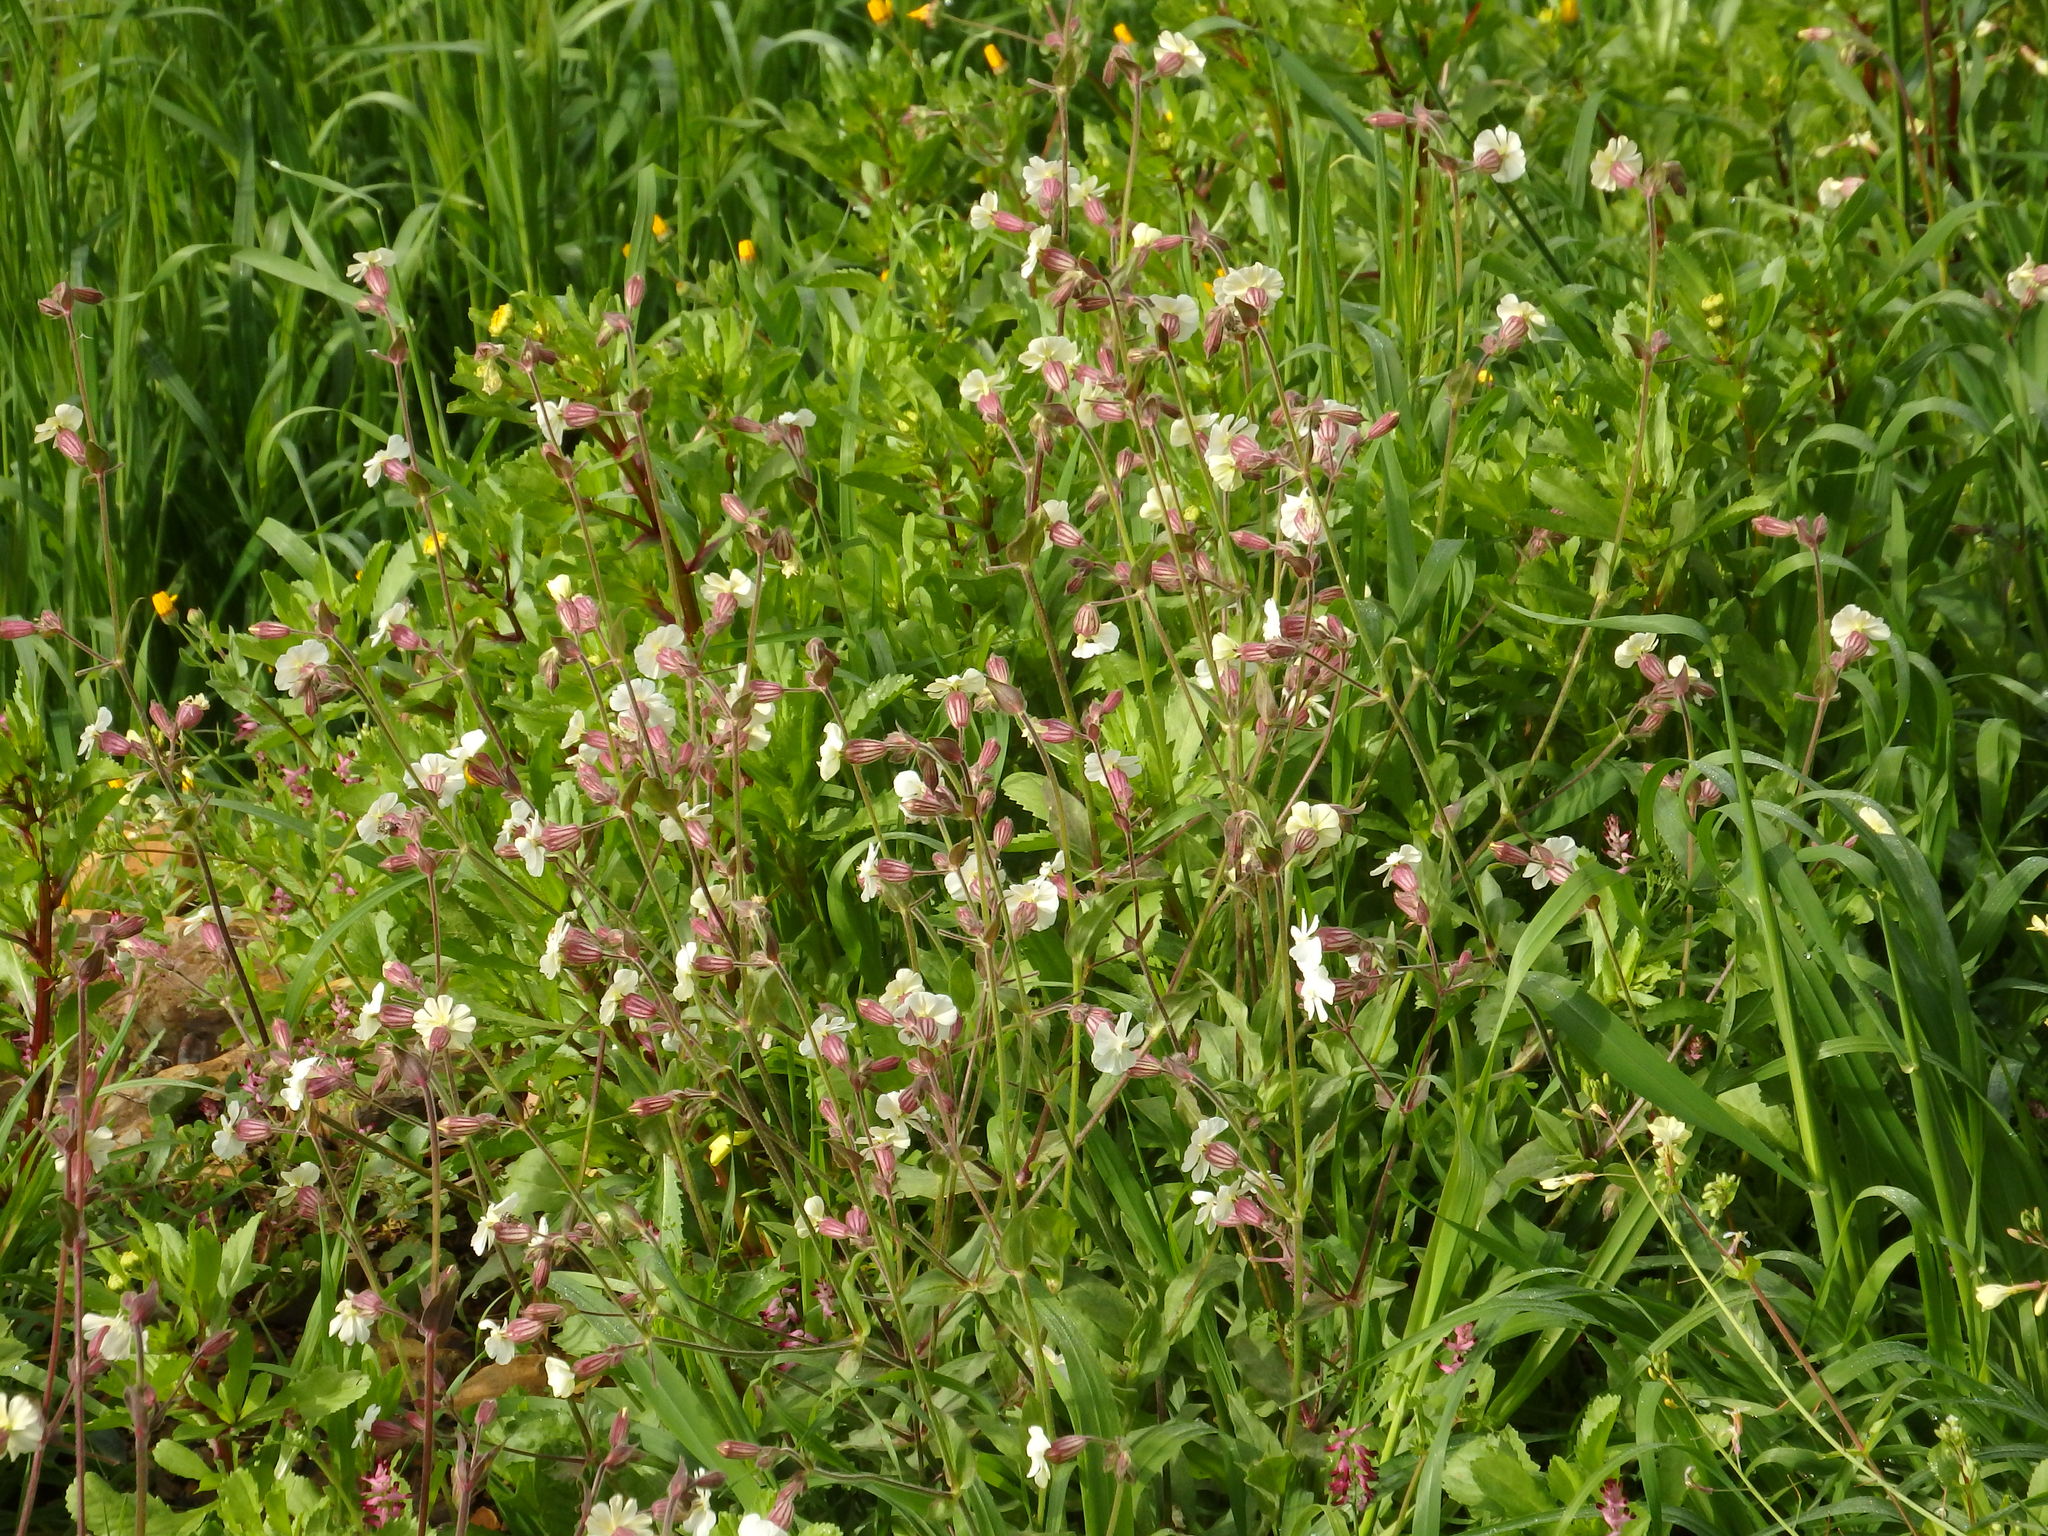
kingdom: Plantae
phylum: Tracheophyta
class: Magnoliopsida
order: Caryophyllales
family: Caryophyllaceae
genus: Silene
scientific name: Silene latifolia
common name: White campion
